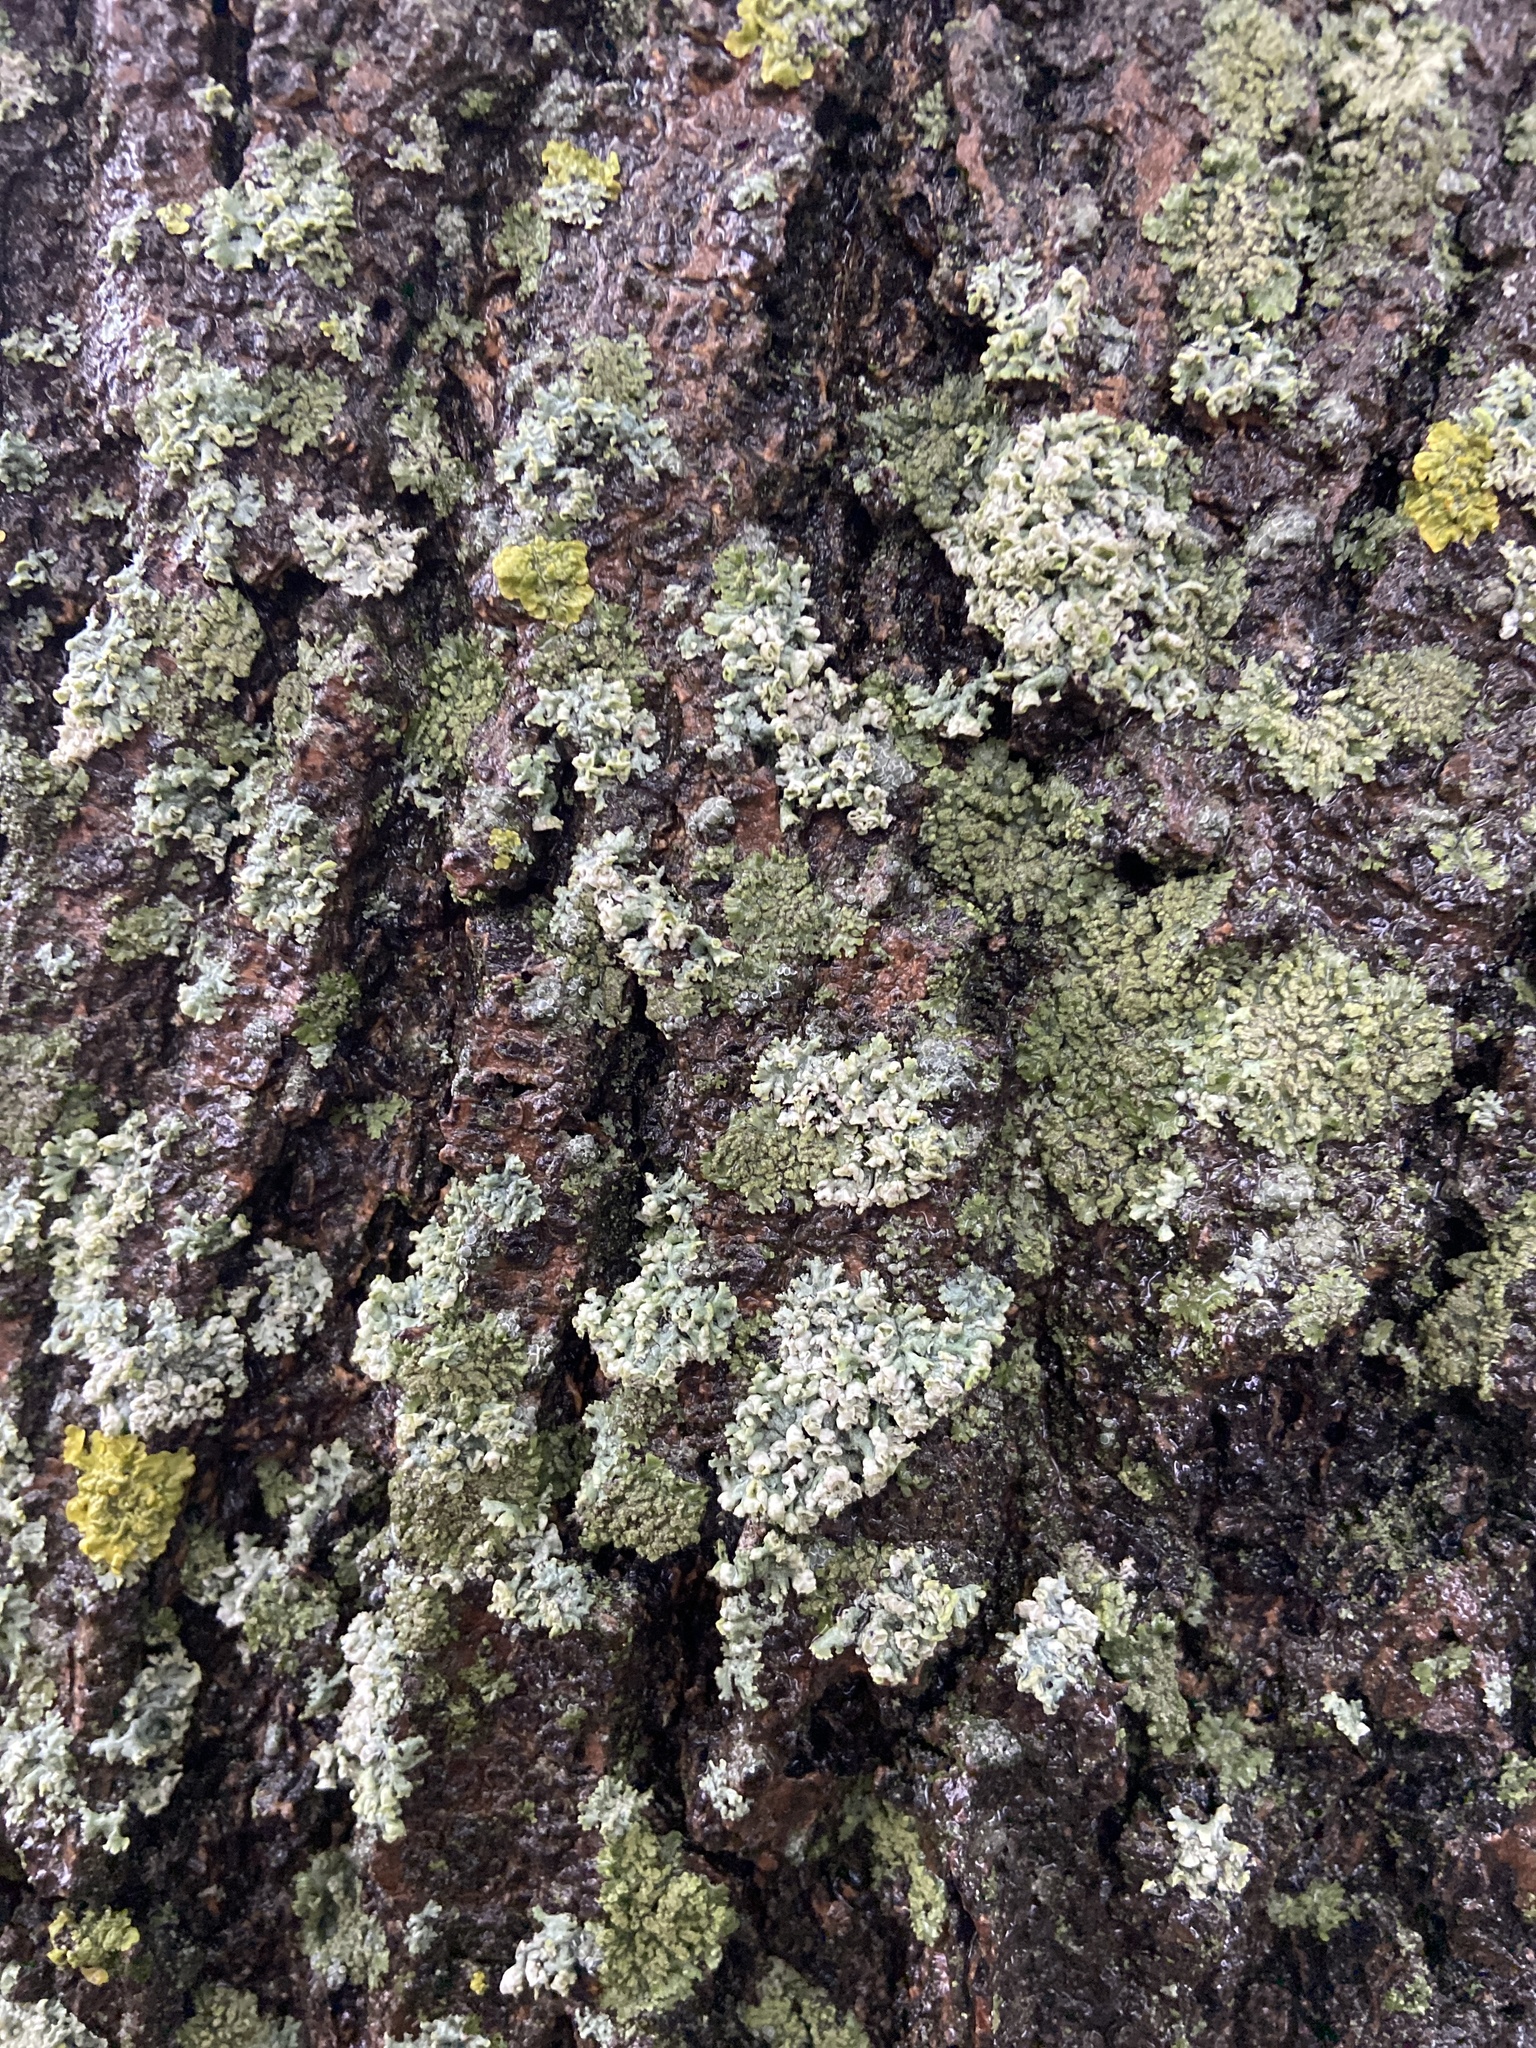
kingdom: Fungi
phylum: Ascomycota
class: Lecanoromycetes
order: Caliciales
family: Physciaceae
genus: Physcia
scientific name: Physcia adscendens
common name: Hooded rosette lichen
